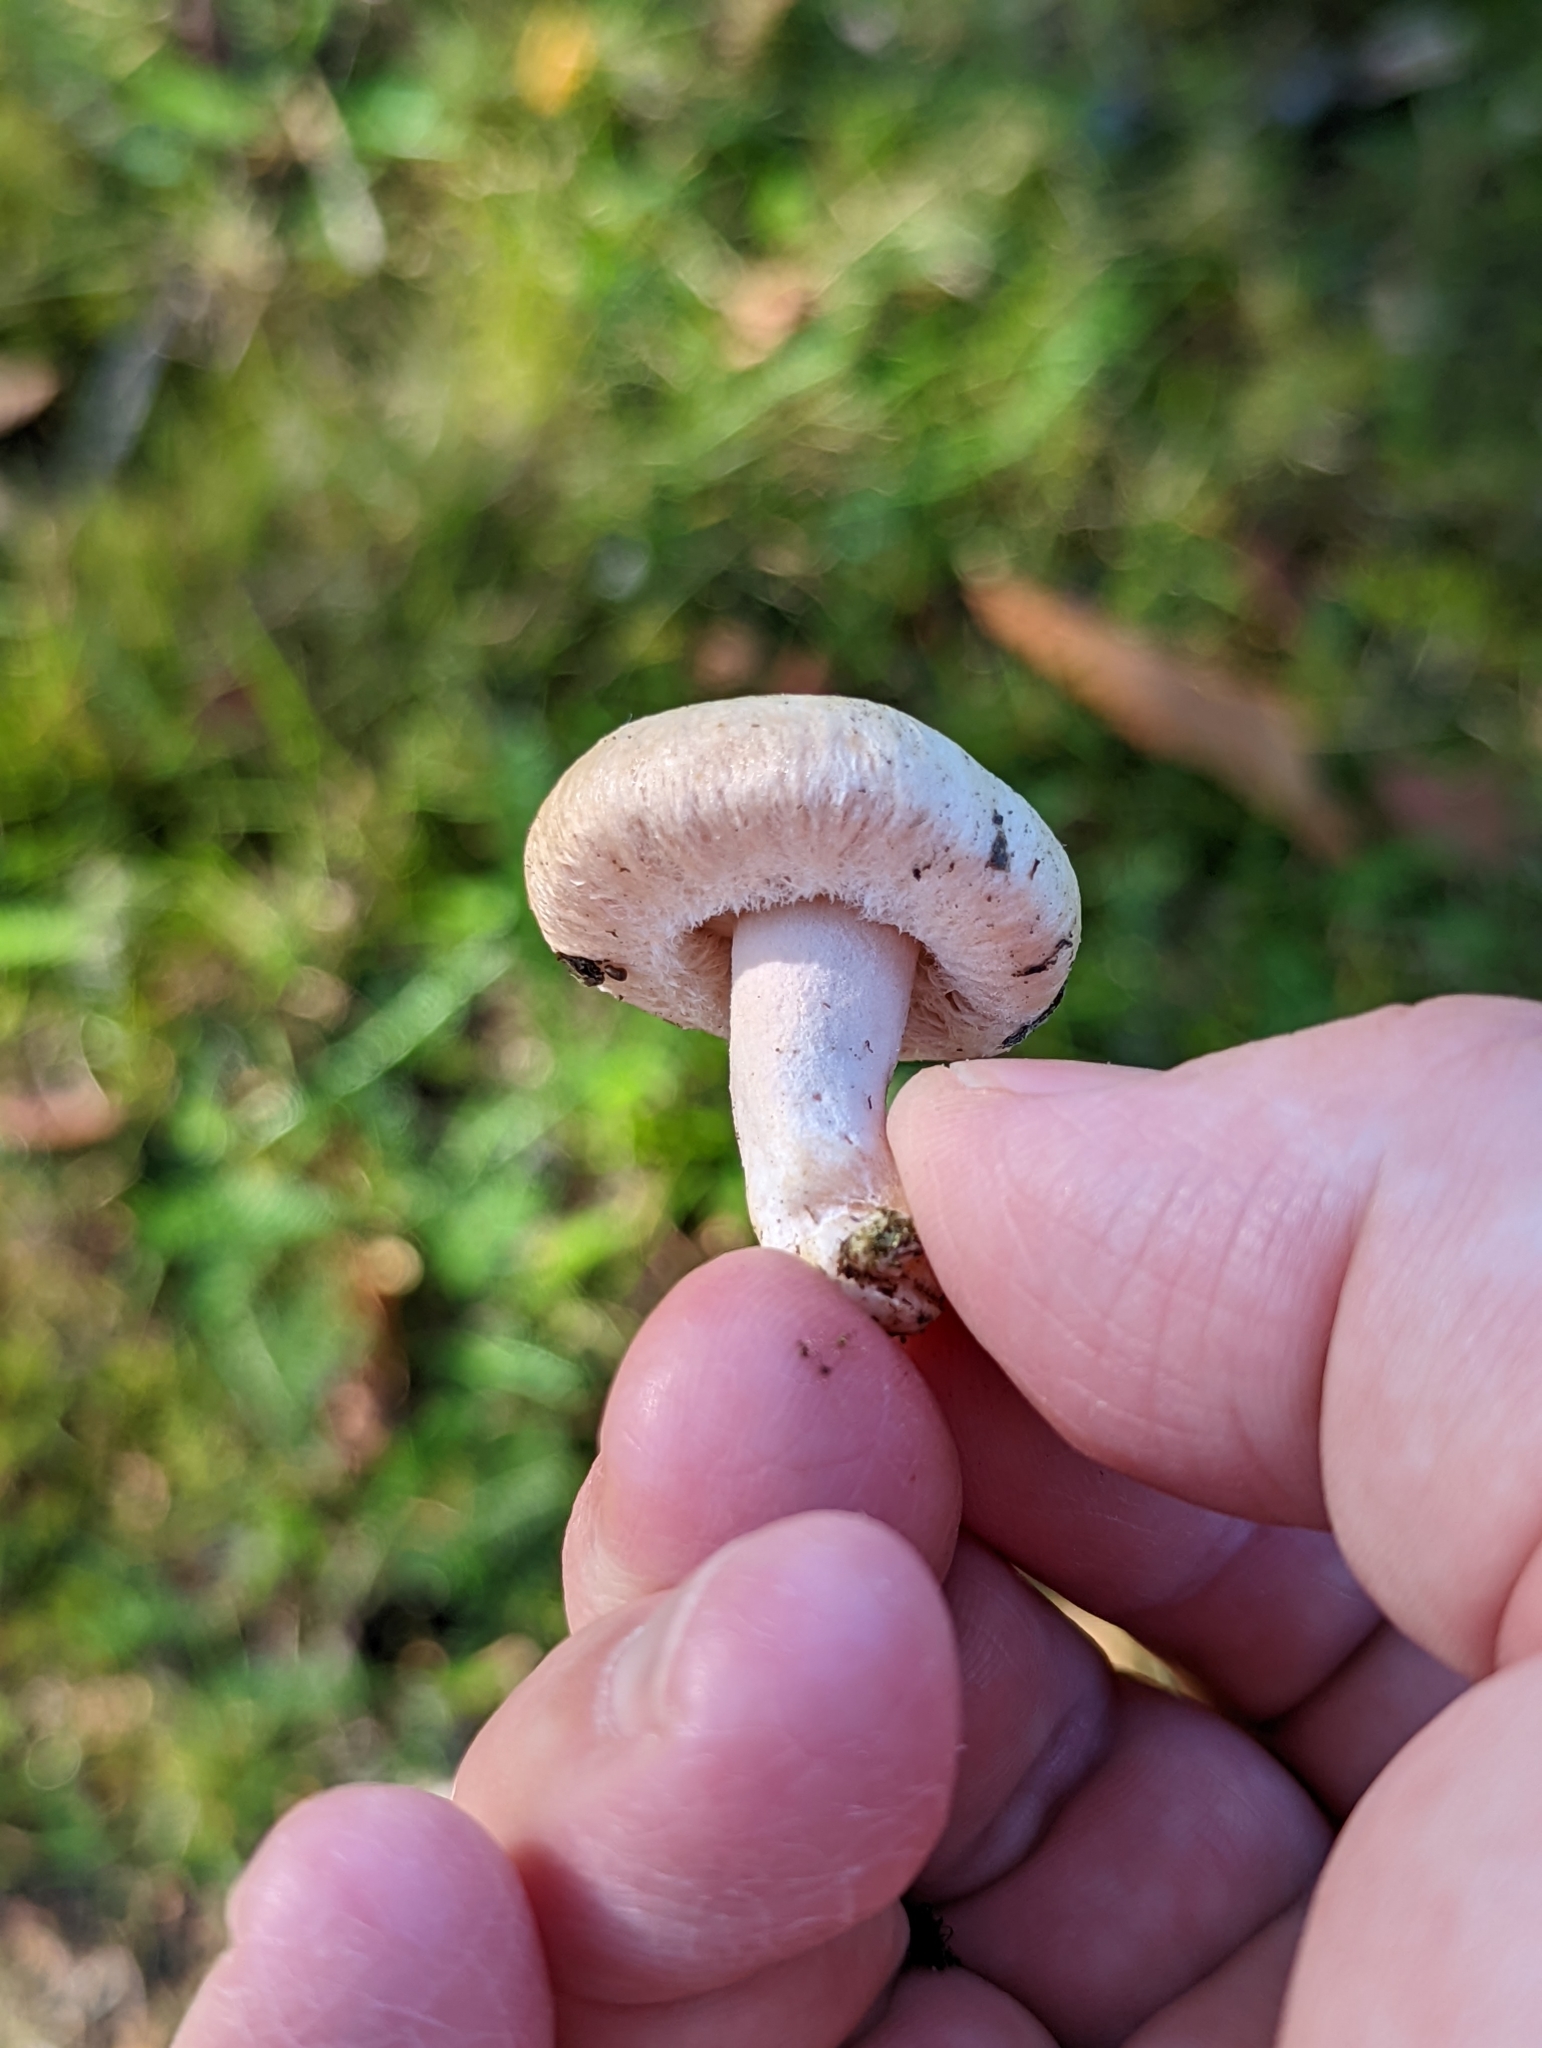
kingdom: Fungi
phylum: Basidiomycota
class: Agaricomycetes
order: Russulales
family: Russulaceae
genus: Lactarius
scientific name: Lactarius pubescens
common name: Bearded milkcap
